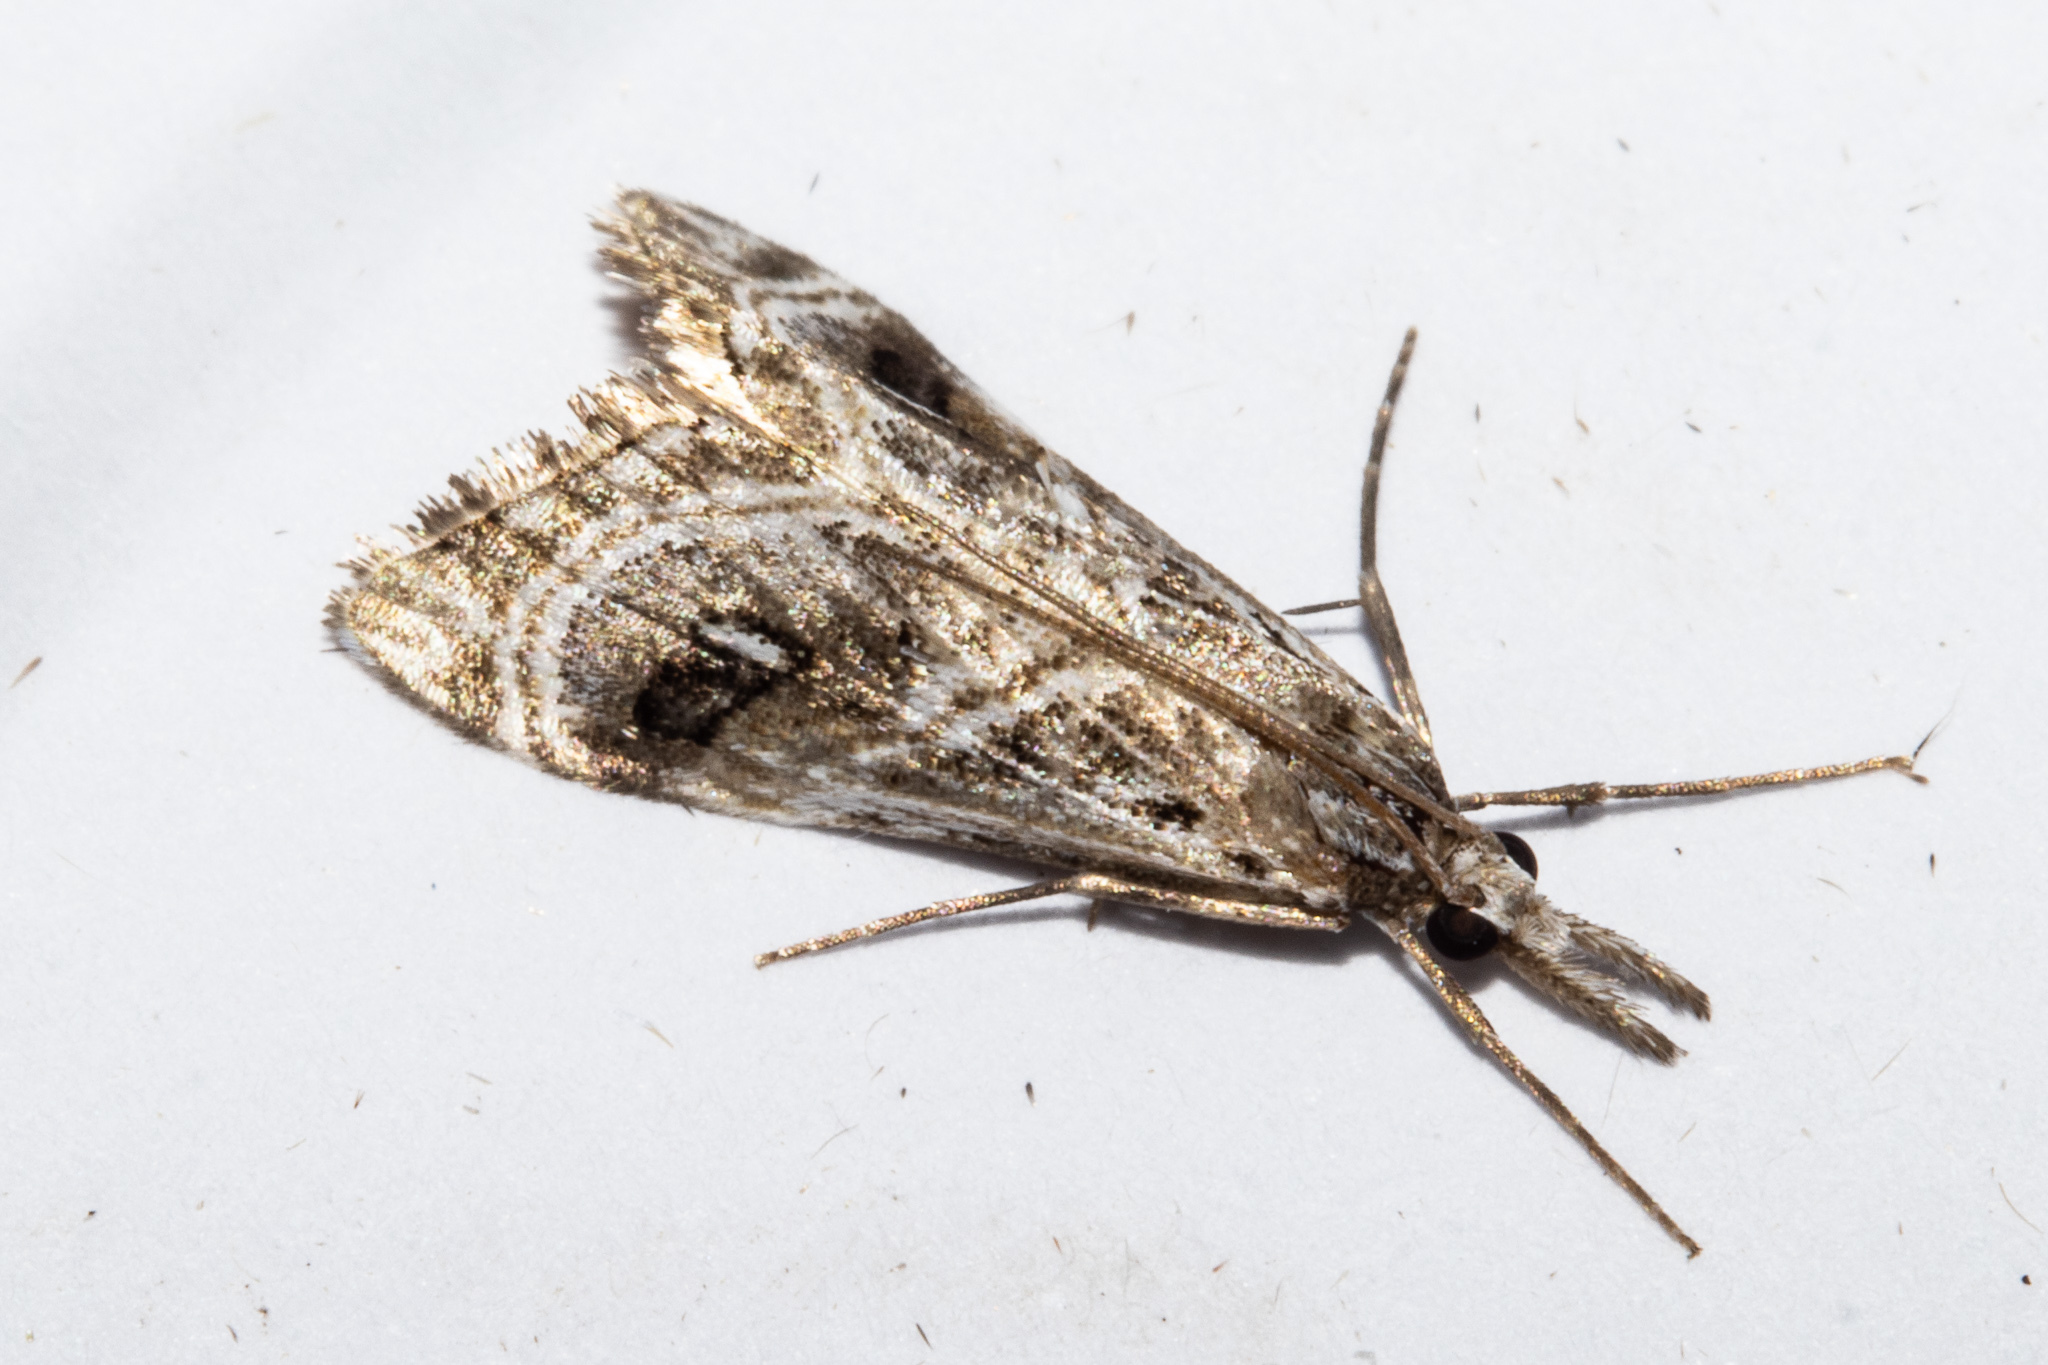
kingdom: Animalia
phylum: Arthropoda
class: Insecta
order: Lepidoptera
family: Crambidae
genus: Gadira
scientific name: Gadira acerella
